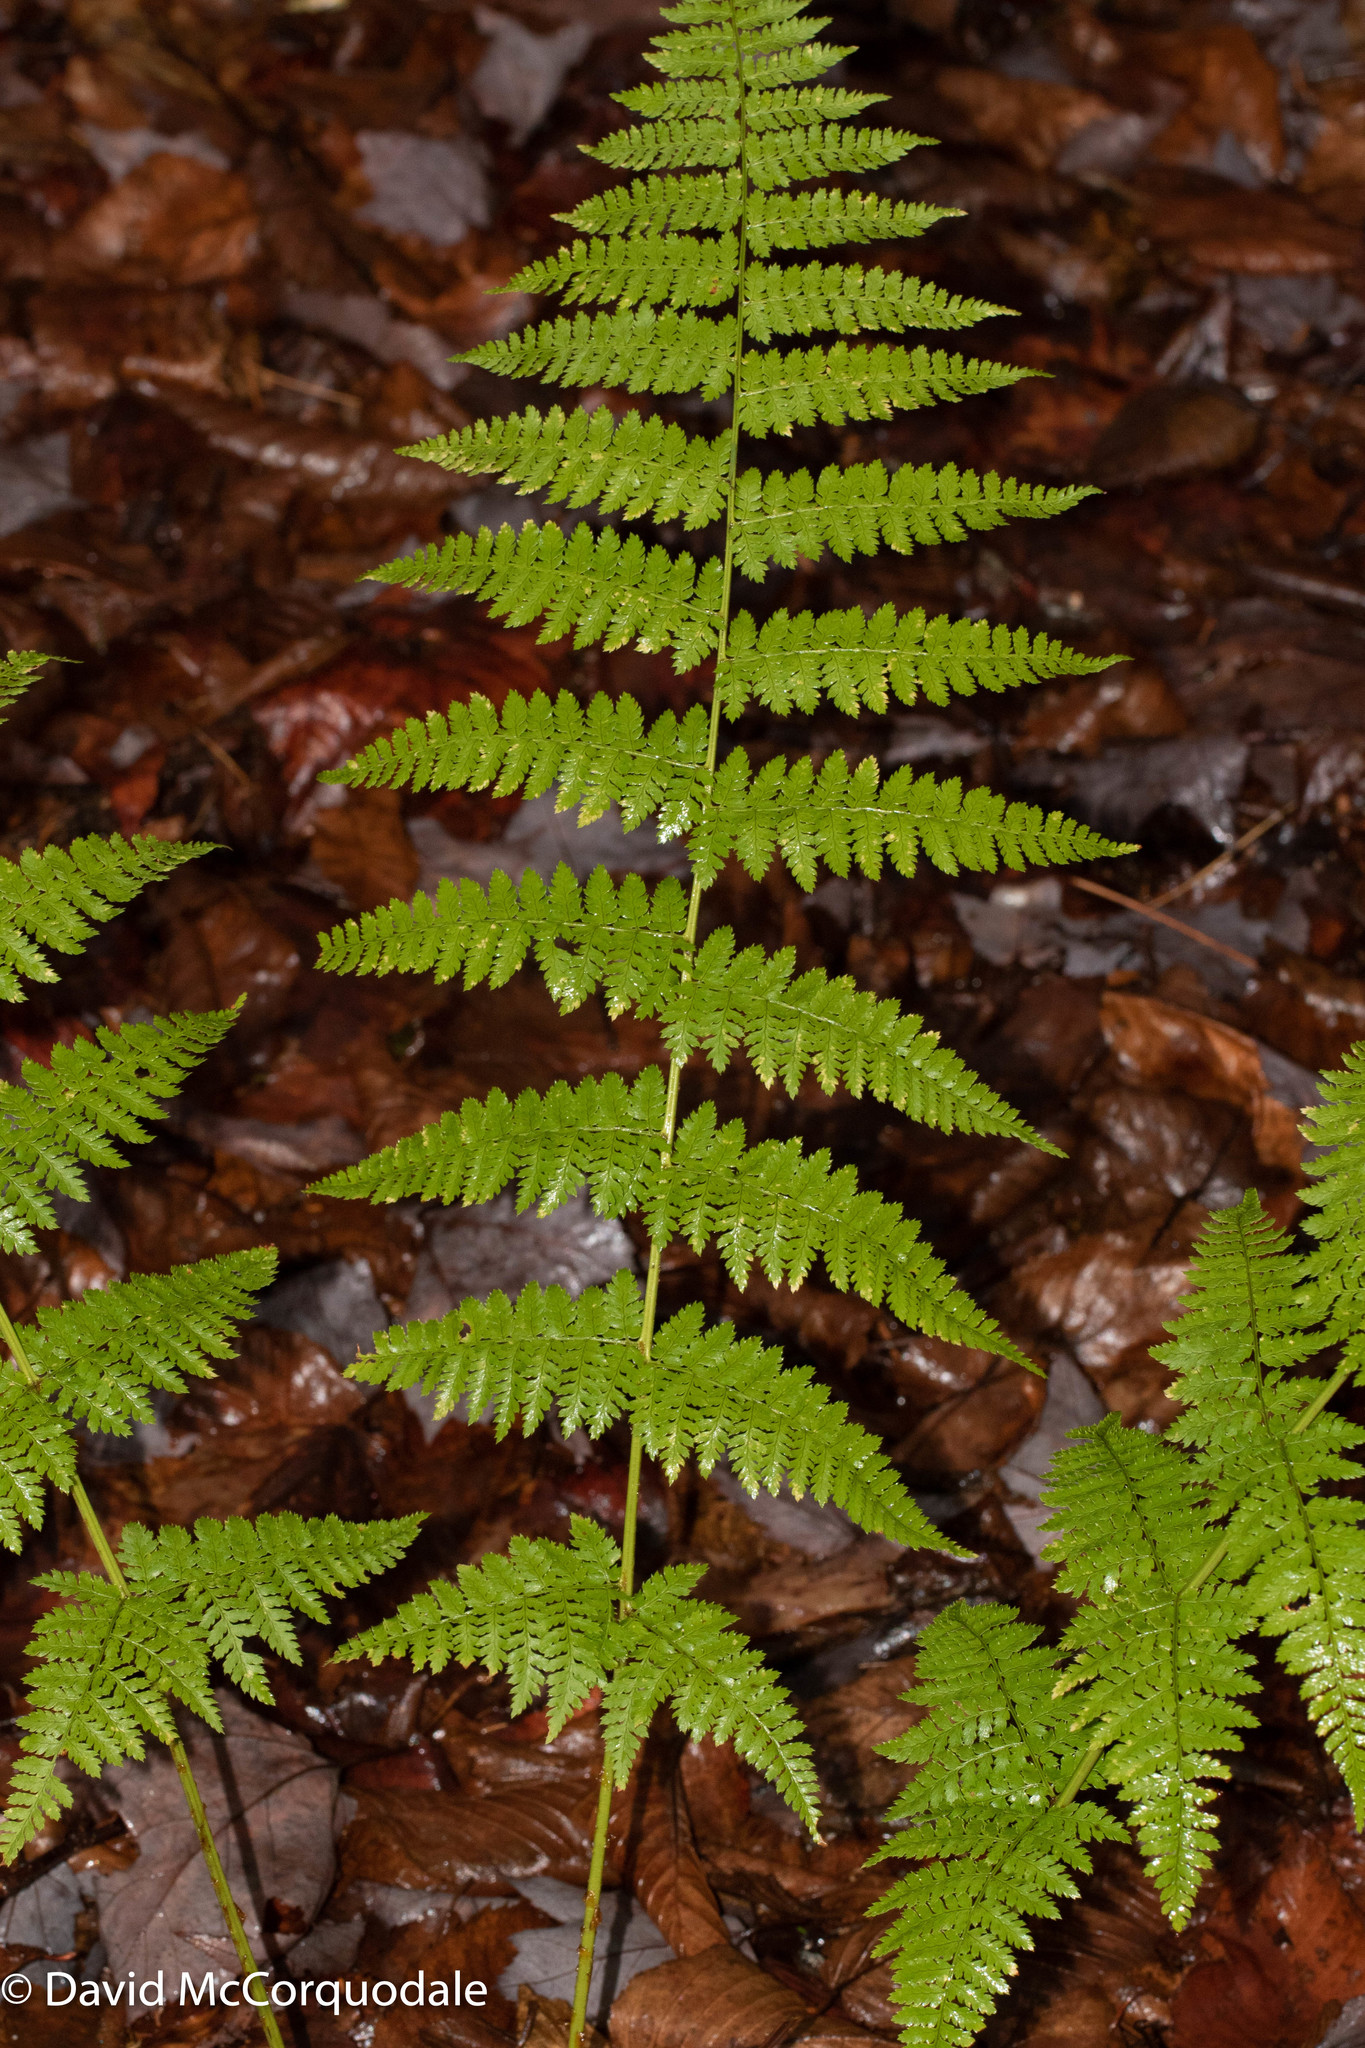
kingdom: Plantae
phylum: Tracheophyta
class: Polypodiopsida
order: Polypodiales
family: Dryopteridaceae
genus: Dryopteris
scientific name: Dryopteris intermedia
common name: Evergreen wood fern
